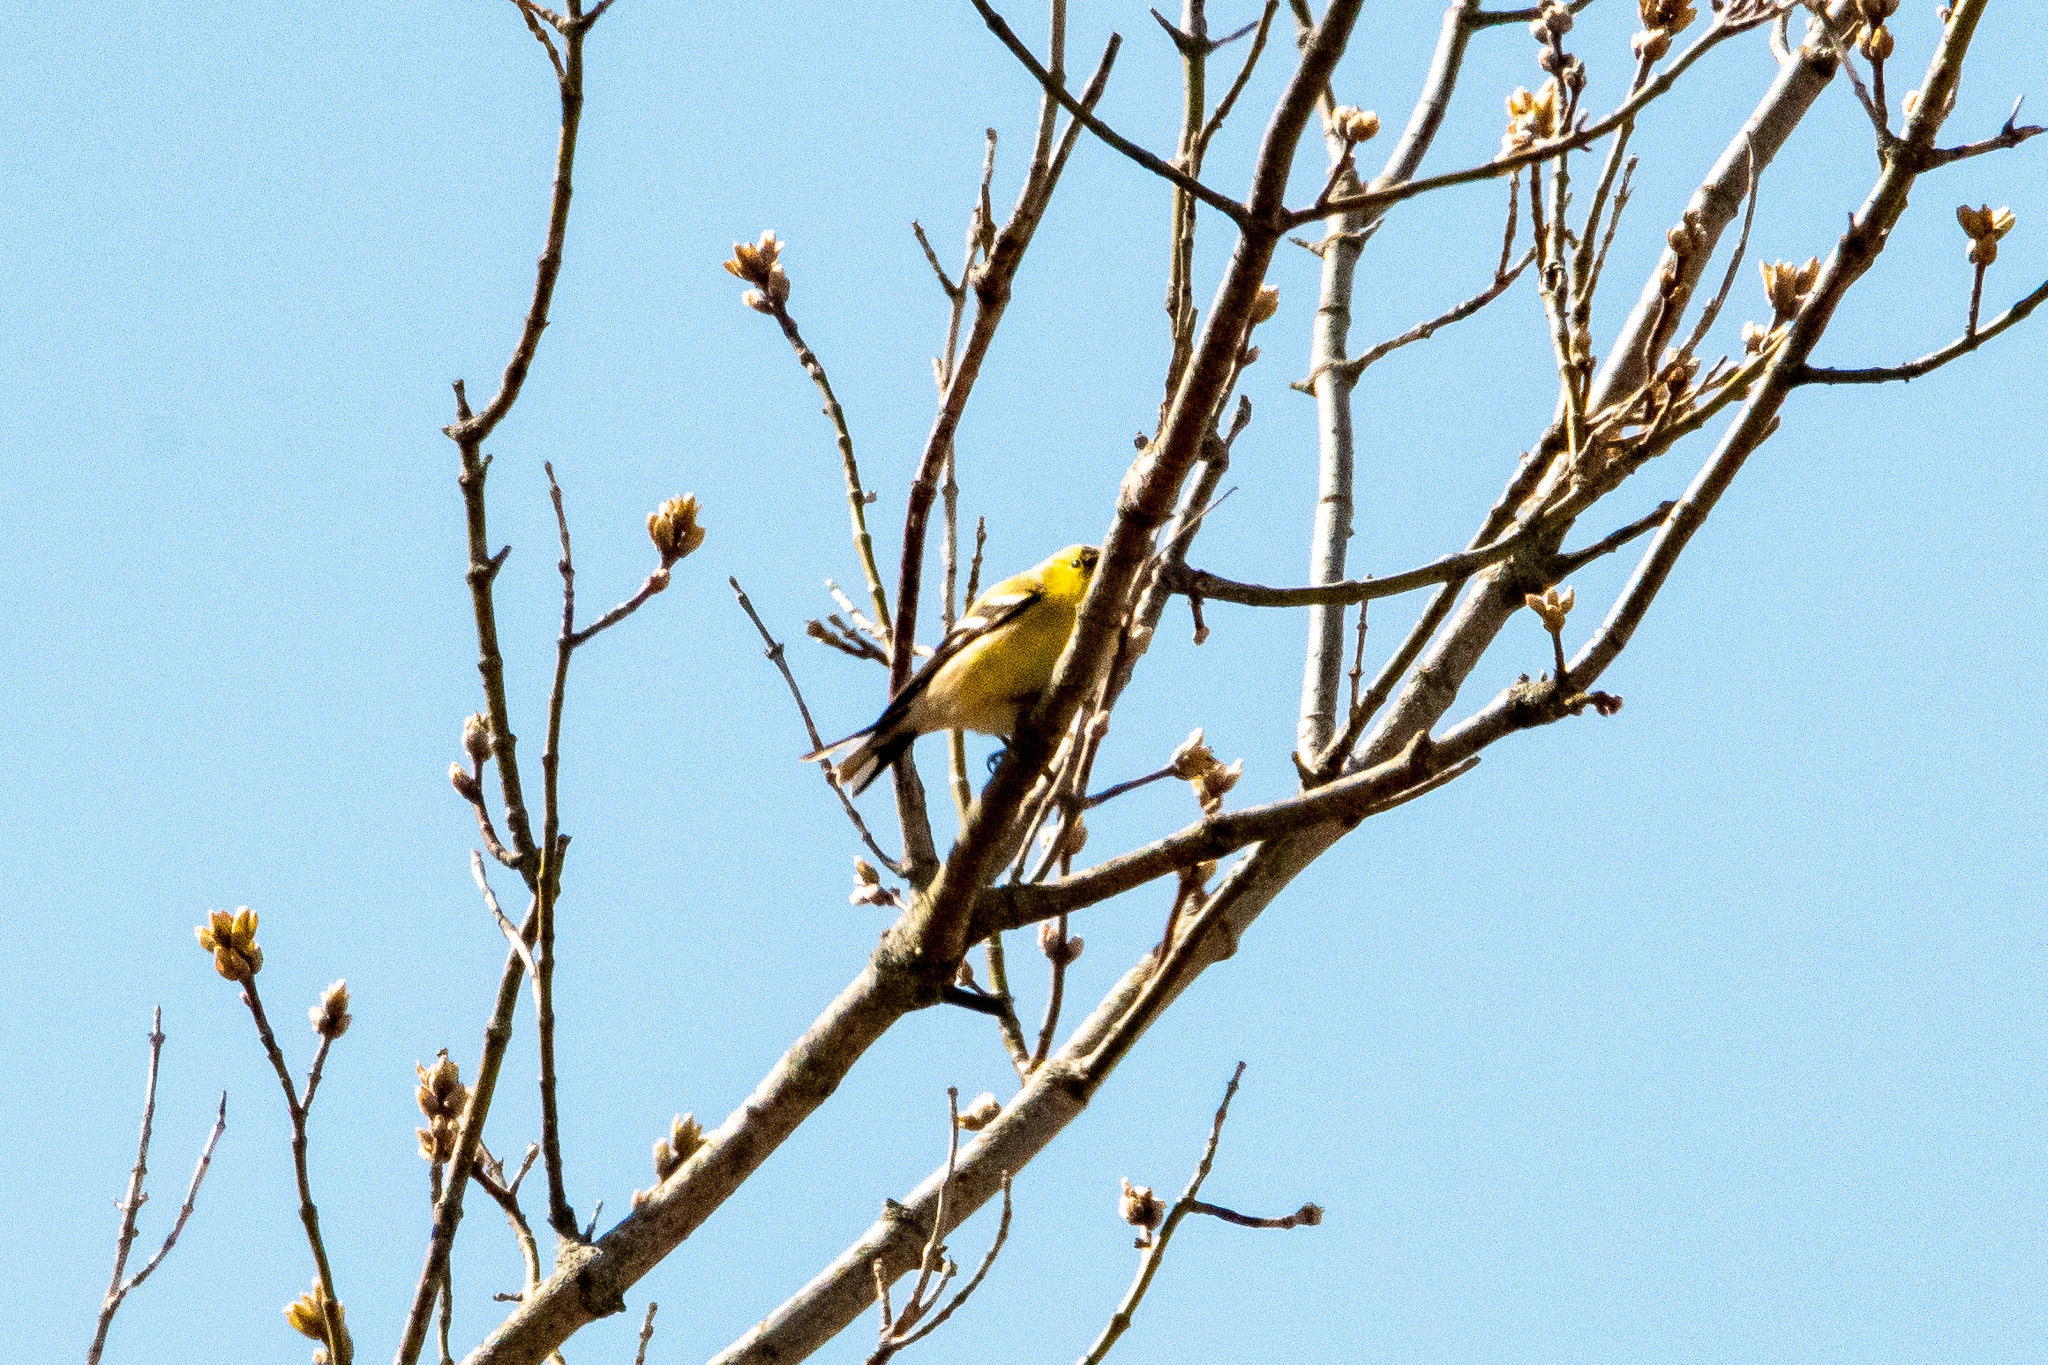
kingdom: Animalia
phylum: Chordata
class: Aves
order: Passeriformes
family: Fringillidae
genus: Spinus
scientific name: Spinus tristis
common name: American goldfinch
